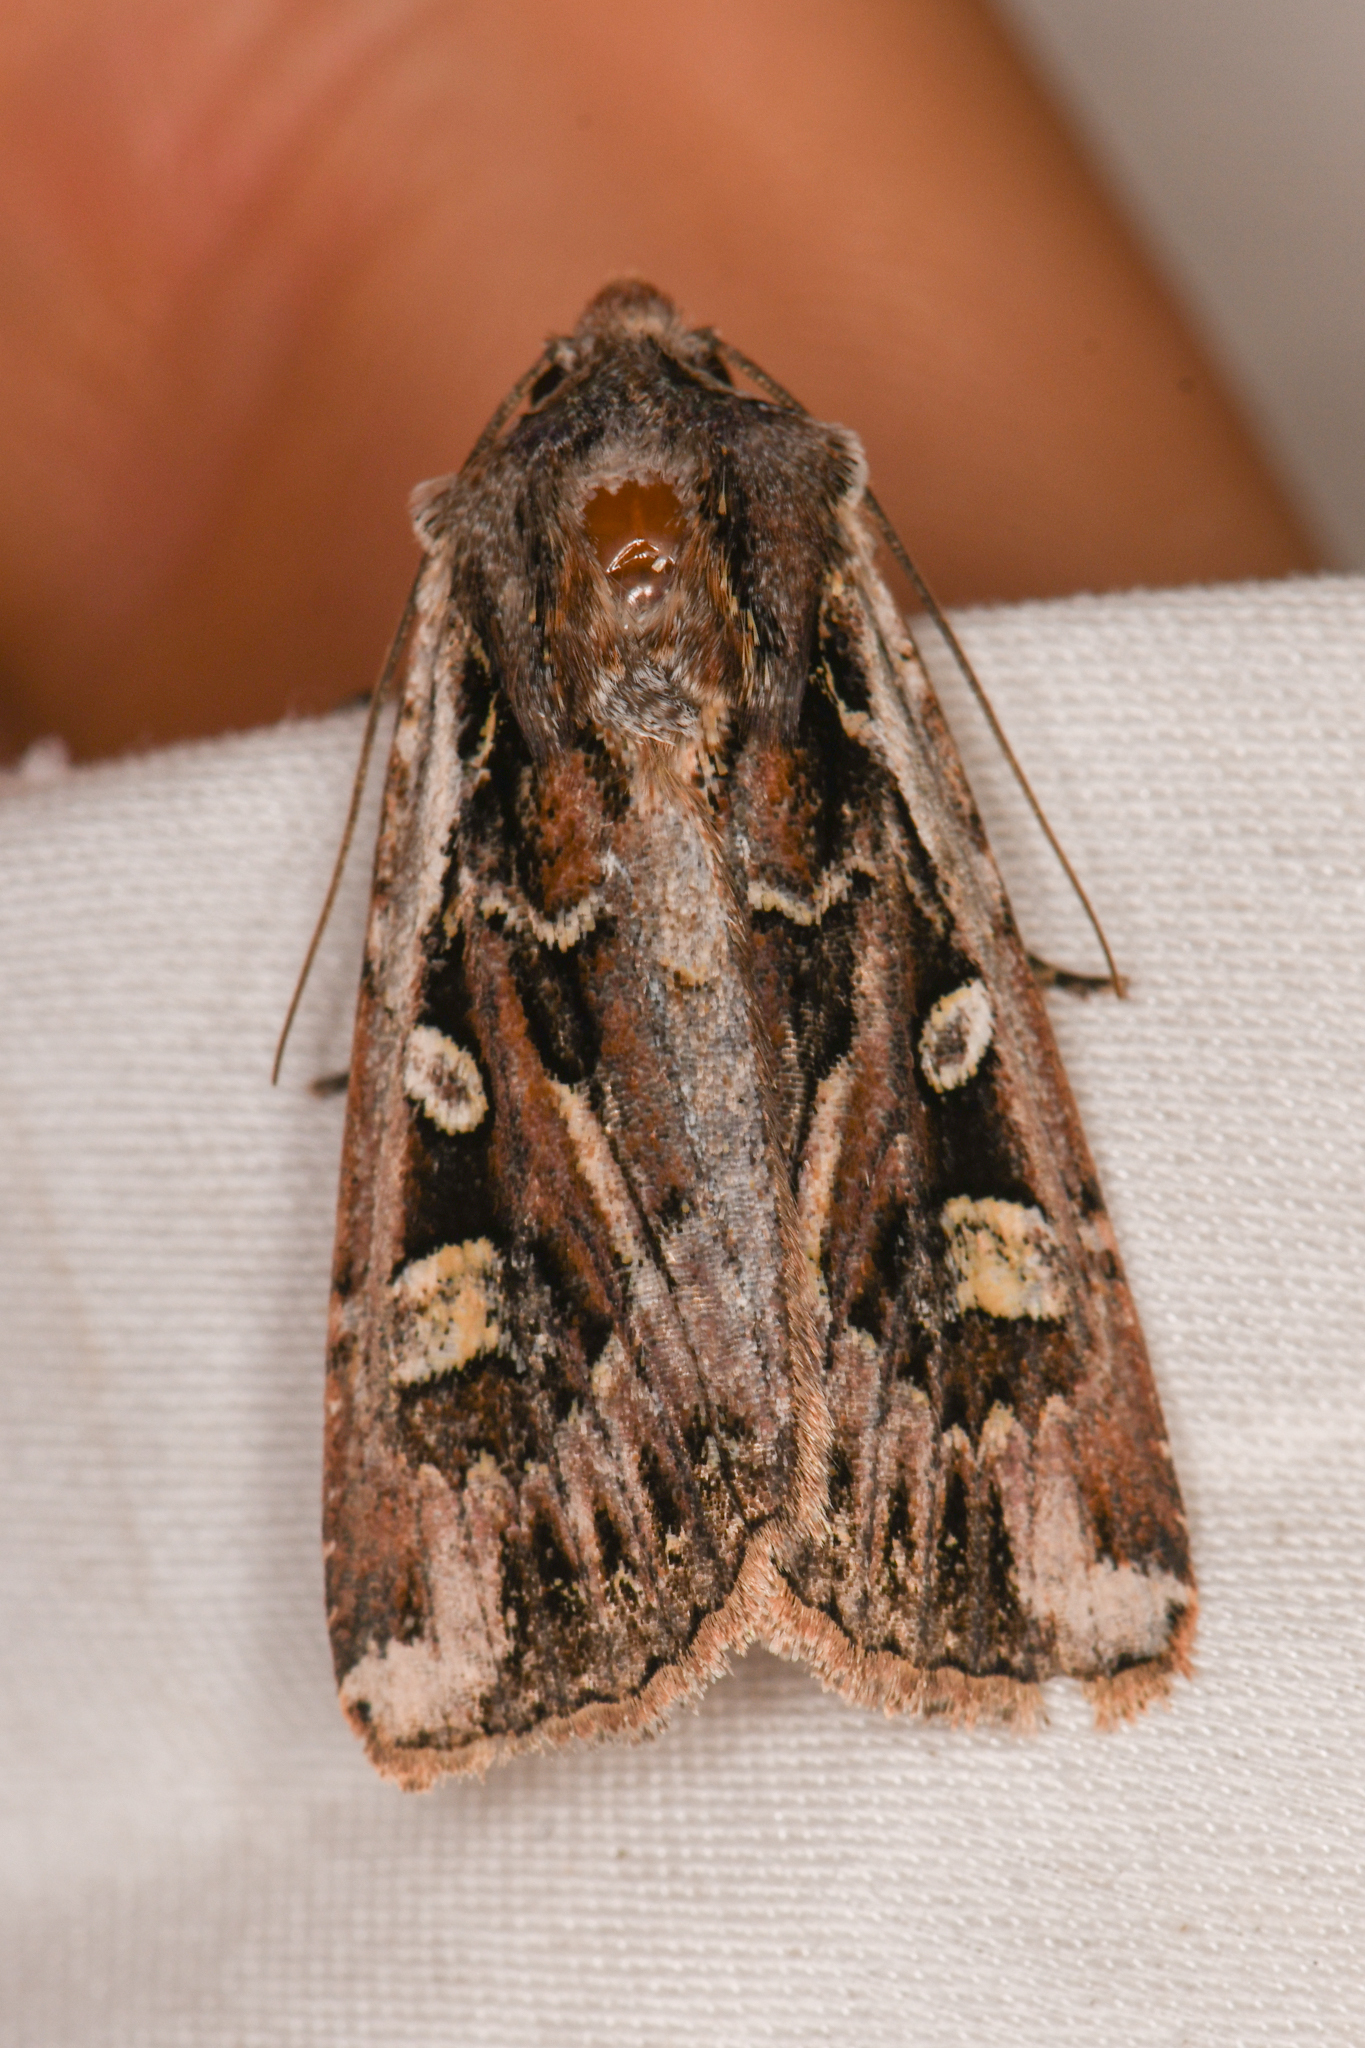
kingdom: Animalia
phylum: Arthropoda
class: Insecta
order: Lepidoptera
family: Noctuidae
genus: Euxoa
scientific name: Euxoa auxiliaris
